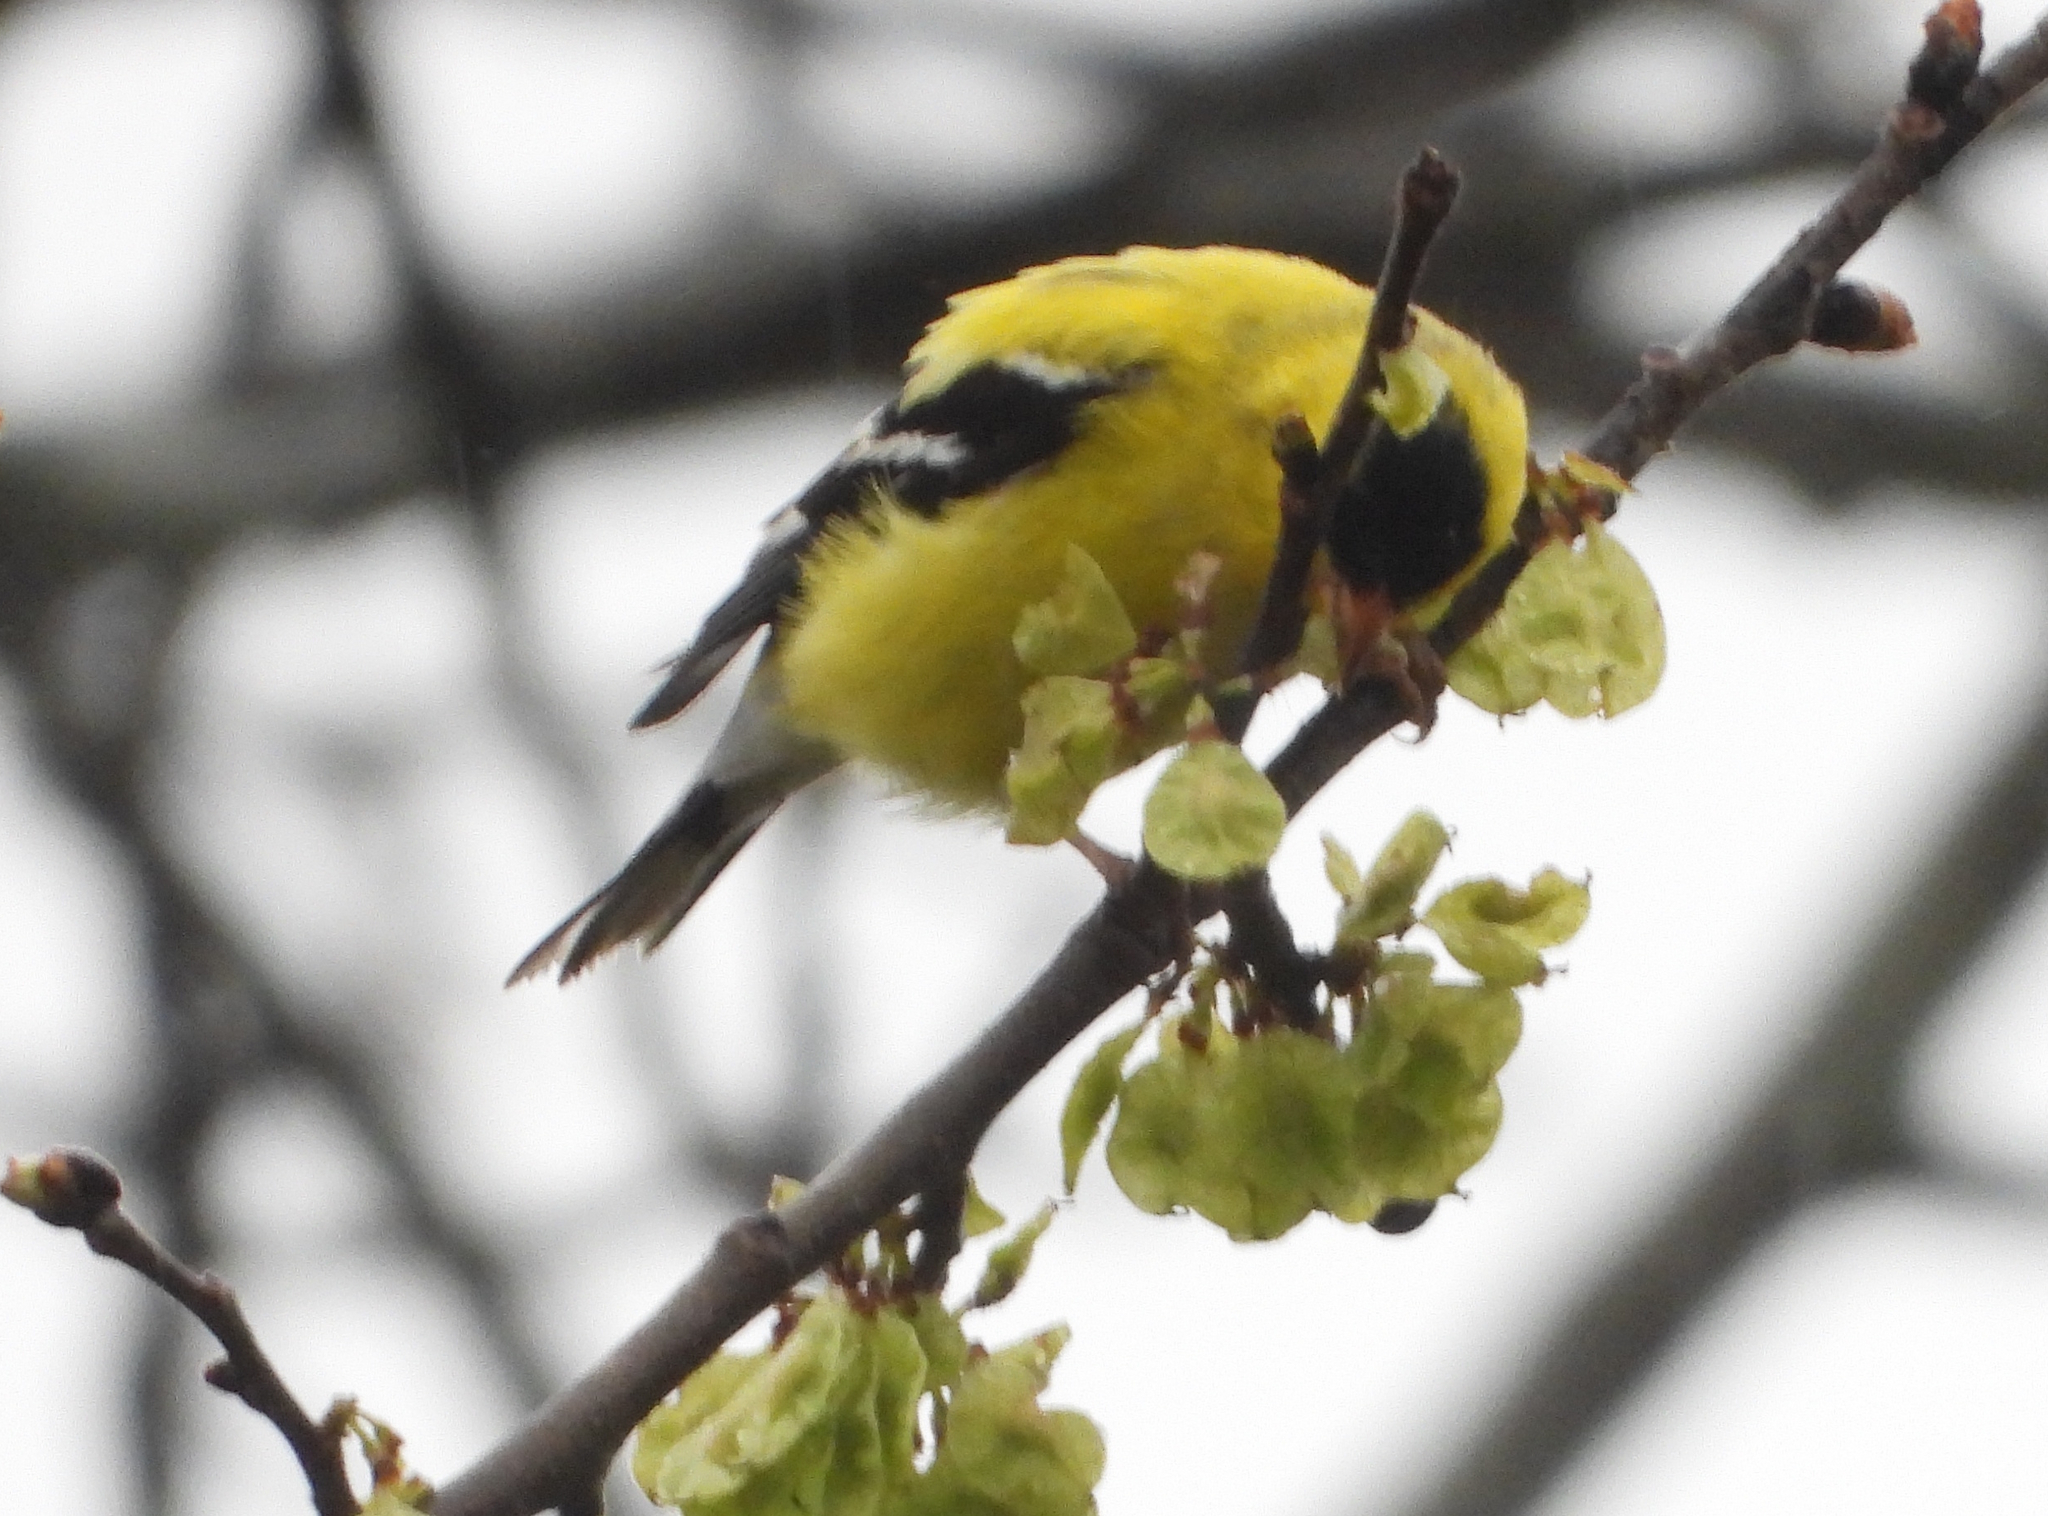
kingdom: Animalia
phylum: Chordata
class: Aves
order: Passeriformes
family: Fringillidae
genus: Spinus
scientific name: Spinus tristis
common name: American goldfinch
